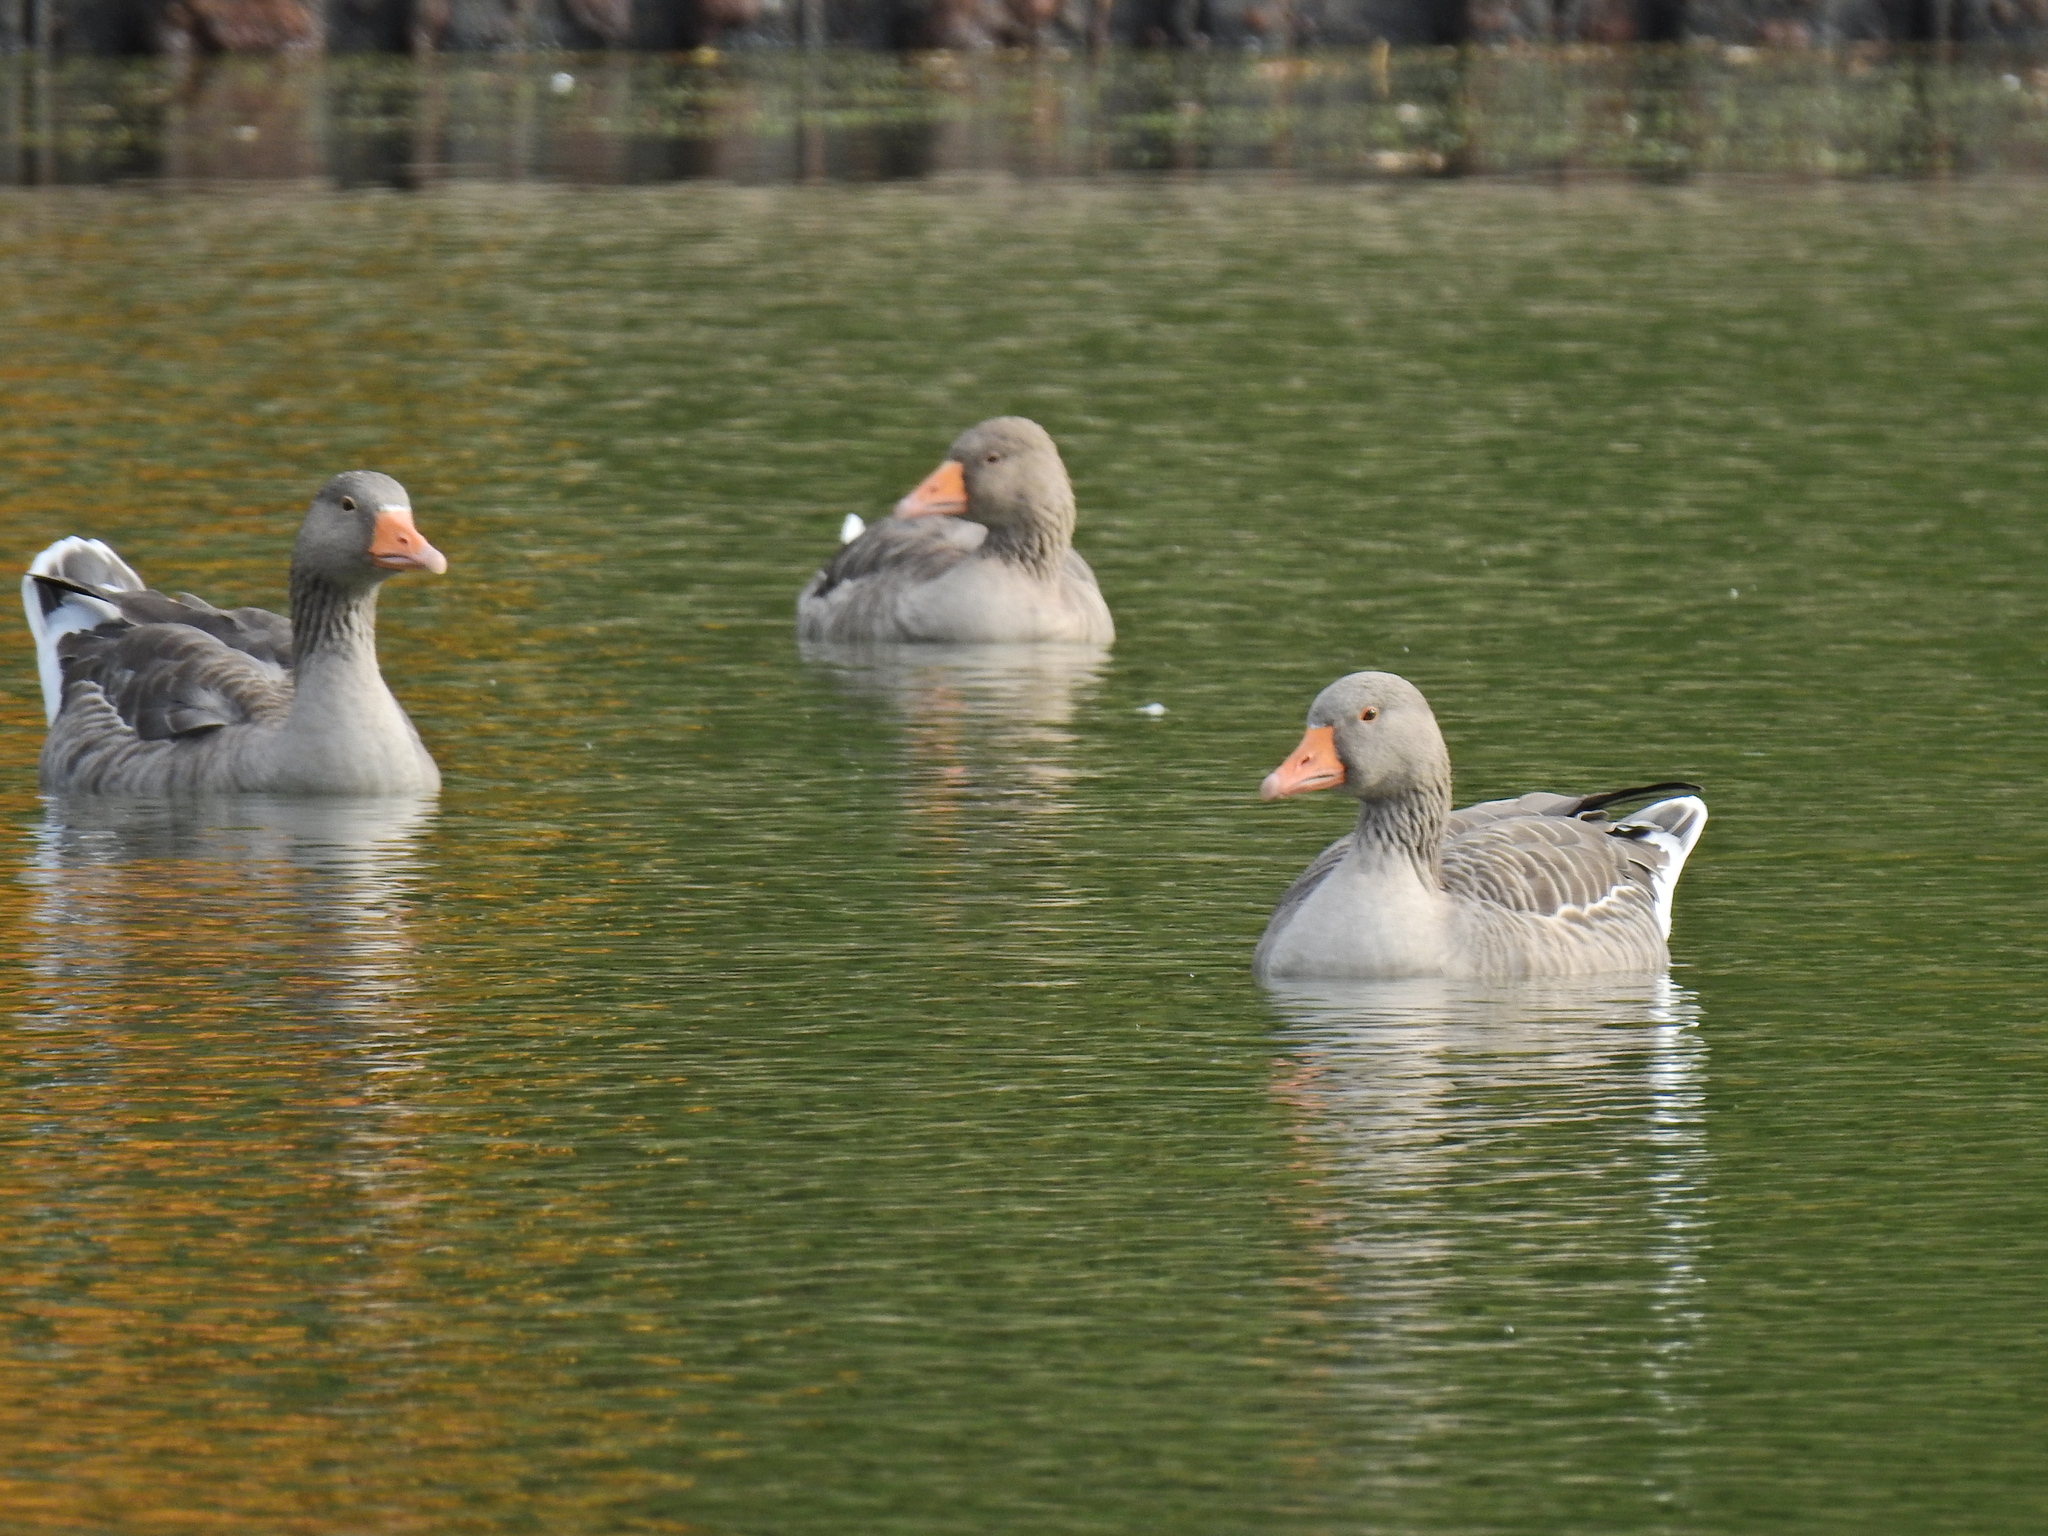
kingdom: Animalia
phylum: Chordata
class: Aves
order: Anseriformes
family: Anatidae
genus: Anser
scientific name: Anser anser
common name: Greylag goose
